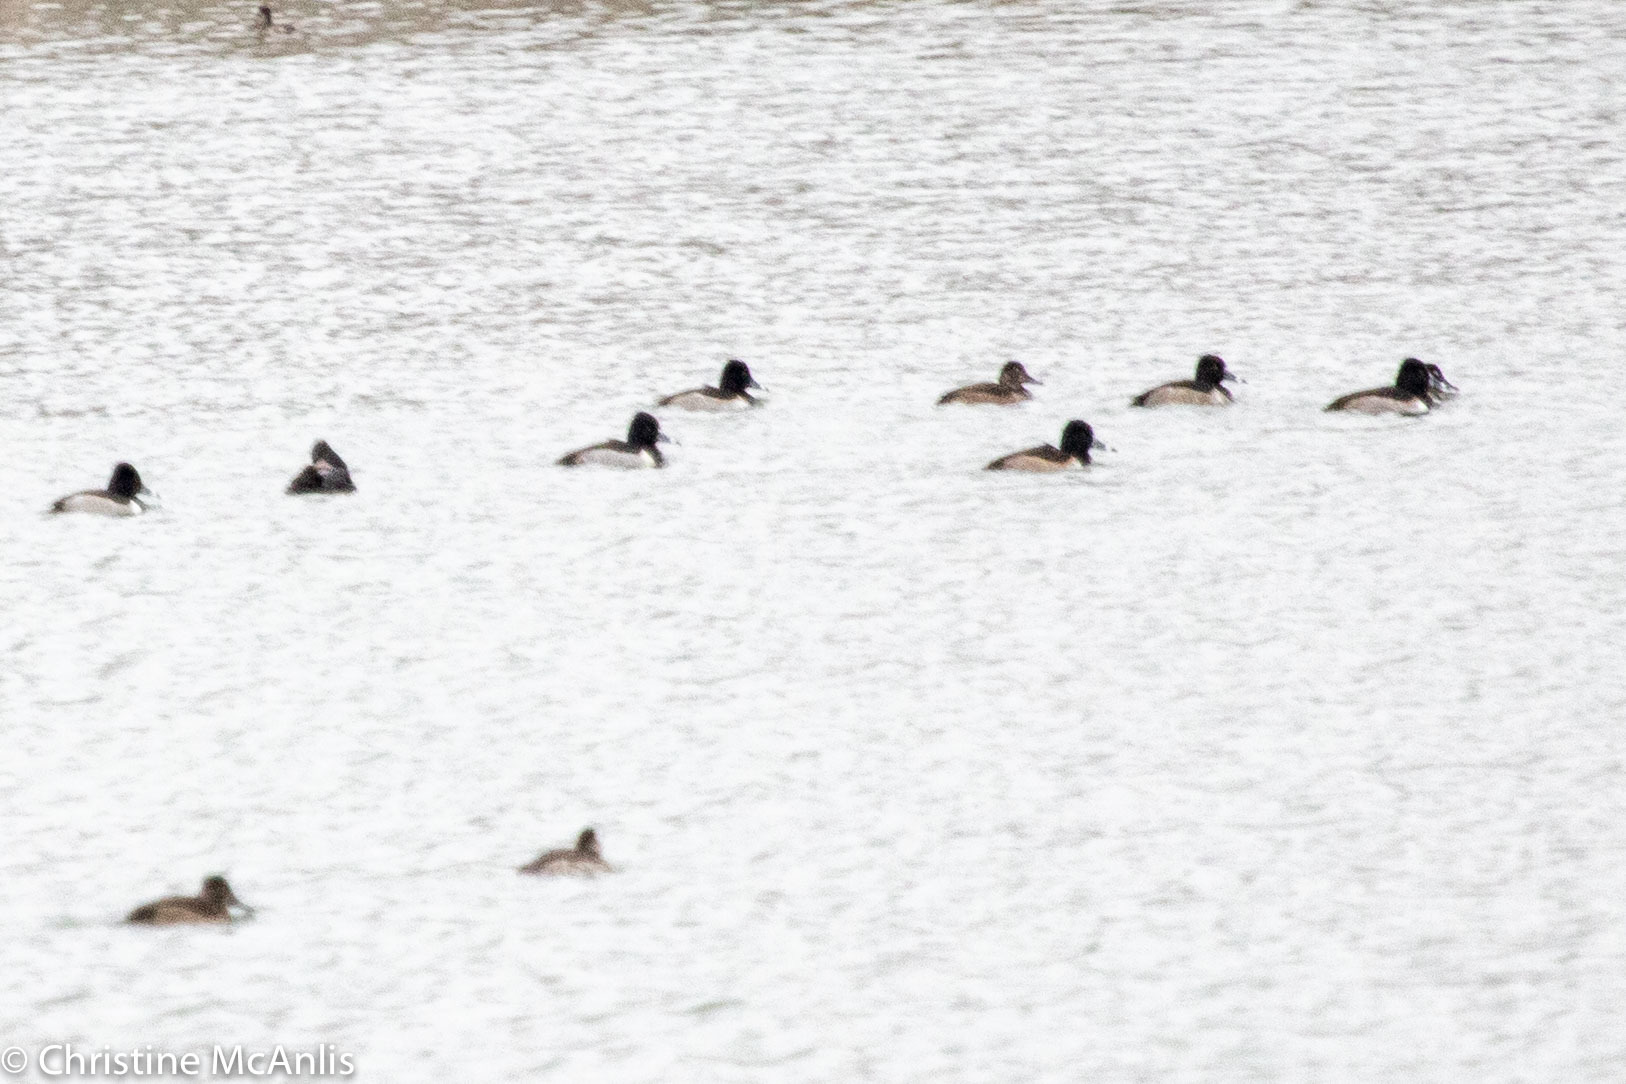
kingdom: Animalia
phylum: Chordata
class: Aves
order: Anseriformes
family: Anatidae
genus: Aythya
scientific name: Aythya collaris
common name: Ring-necked duck
